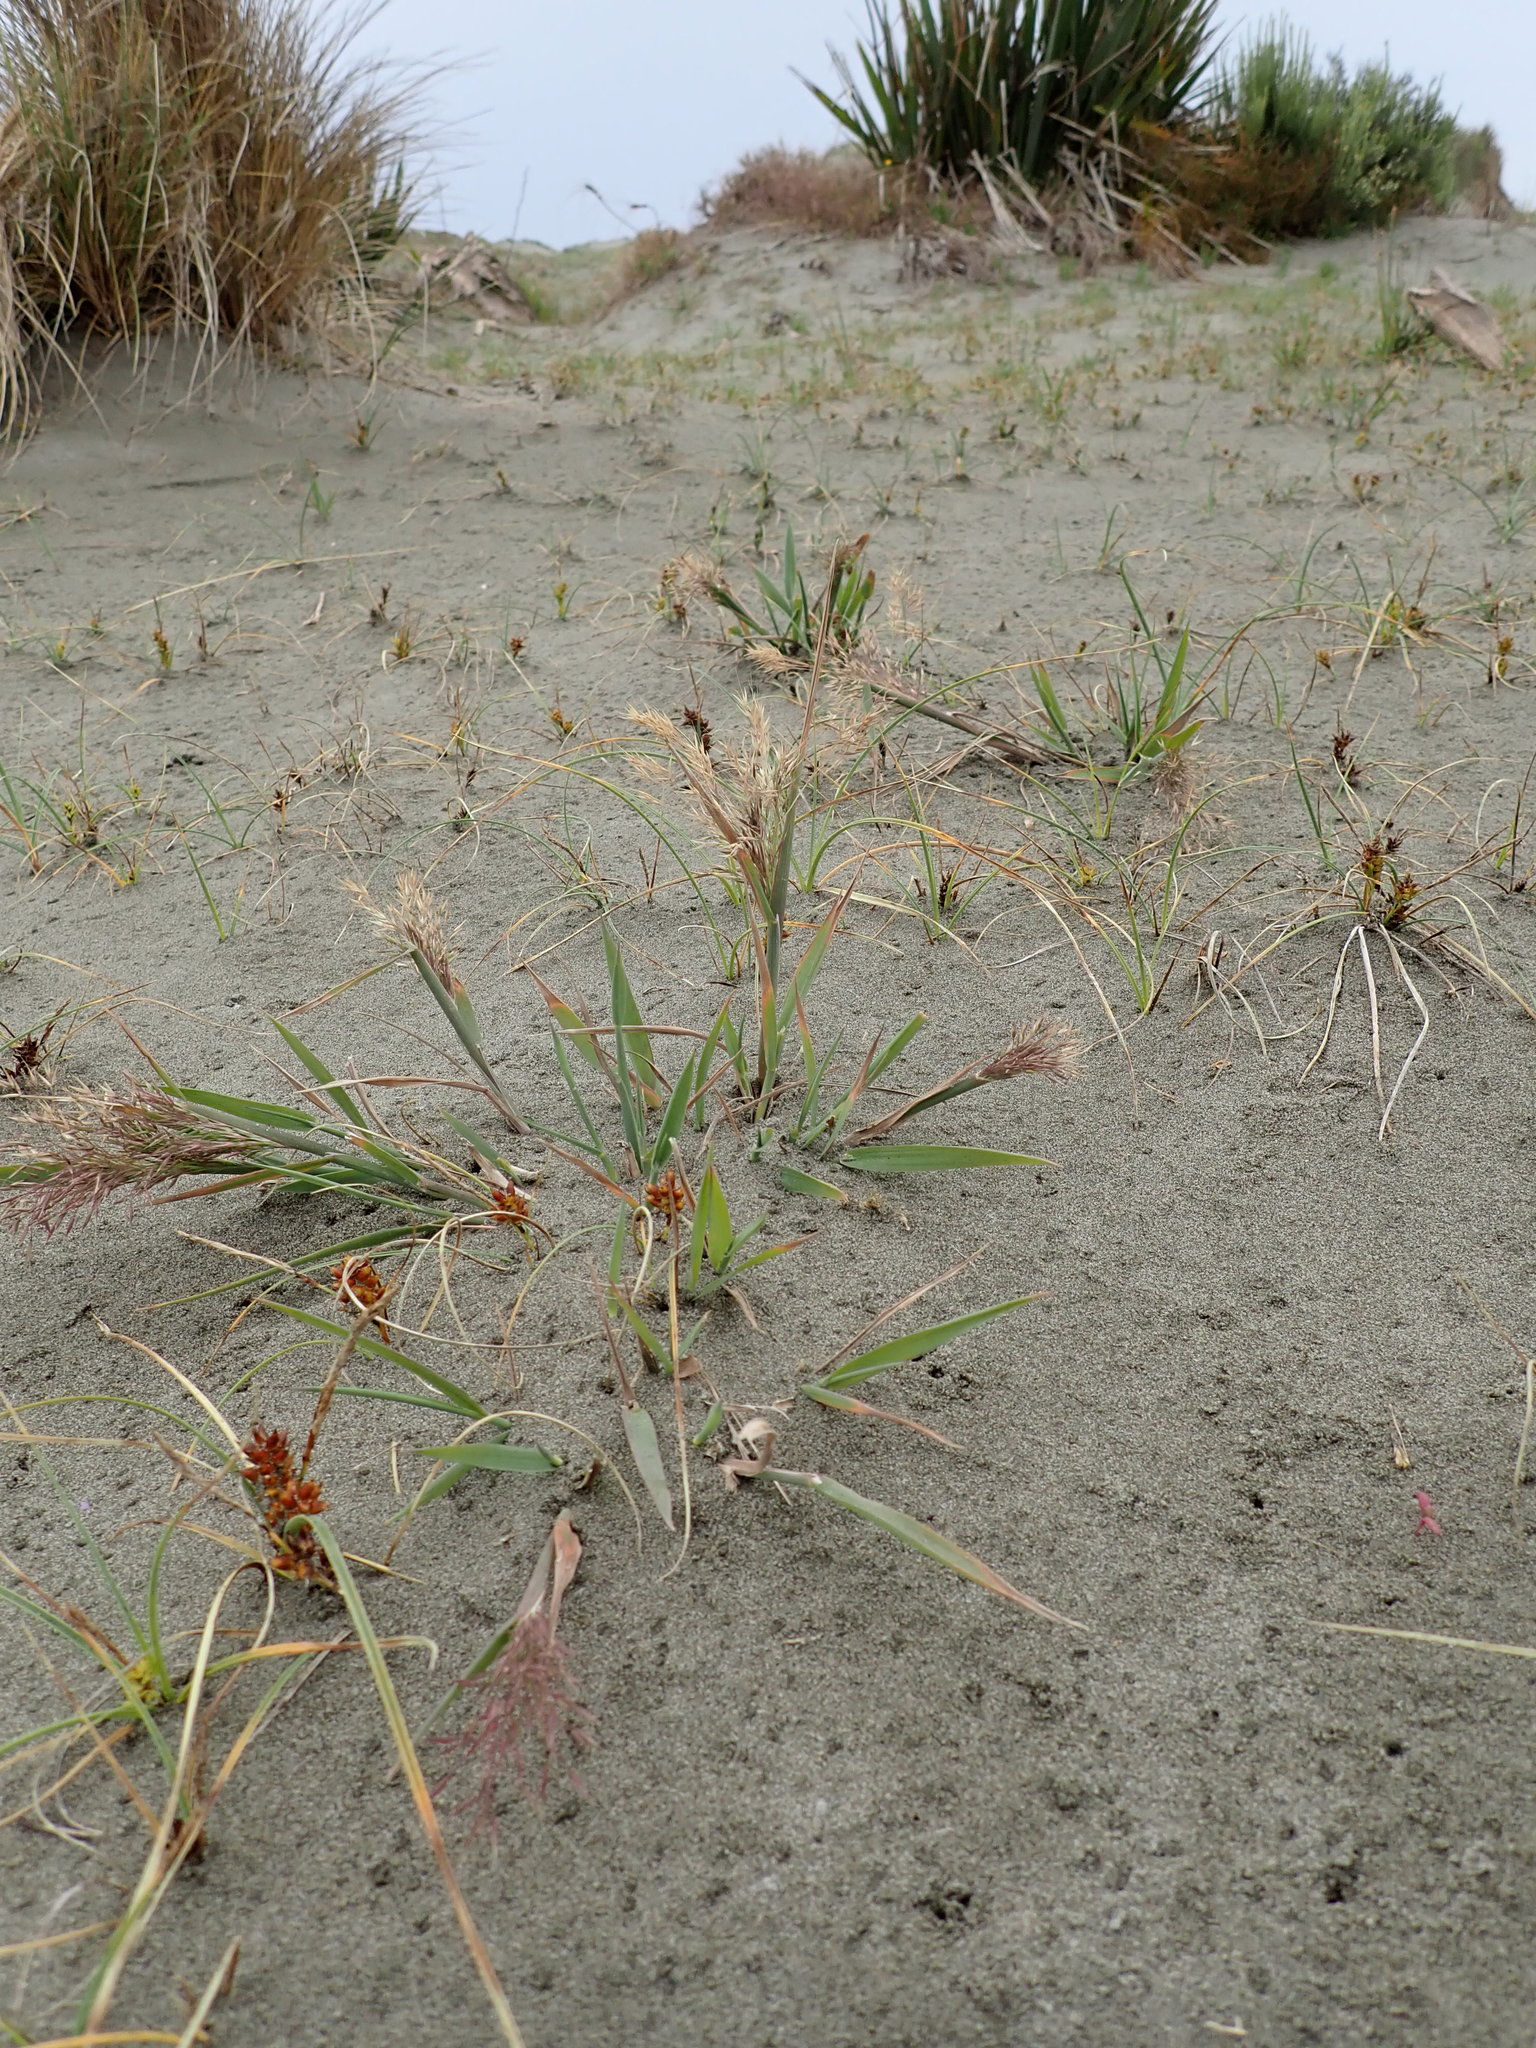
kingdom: Plantae
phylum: Tracheophyta
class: Liliopsida
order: Poales
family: Poaceae
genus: Lachnagrostis
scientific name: Lachnagrostis billardierei
